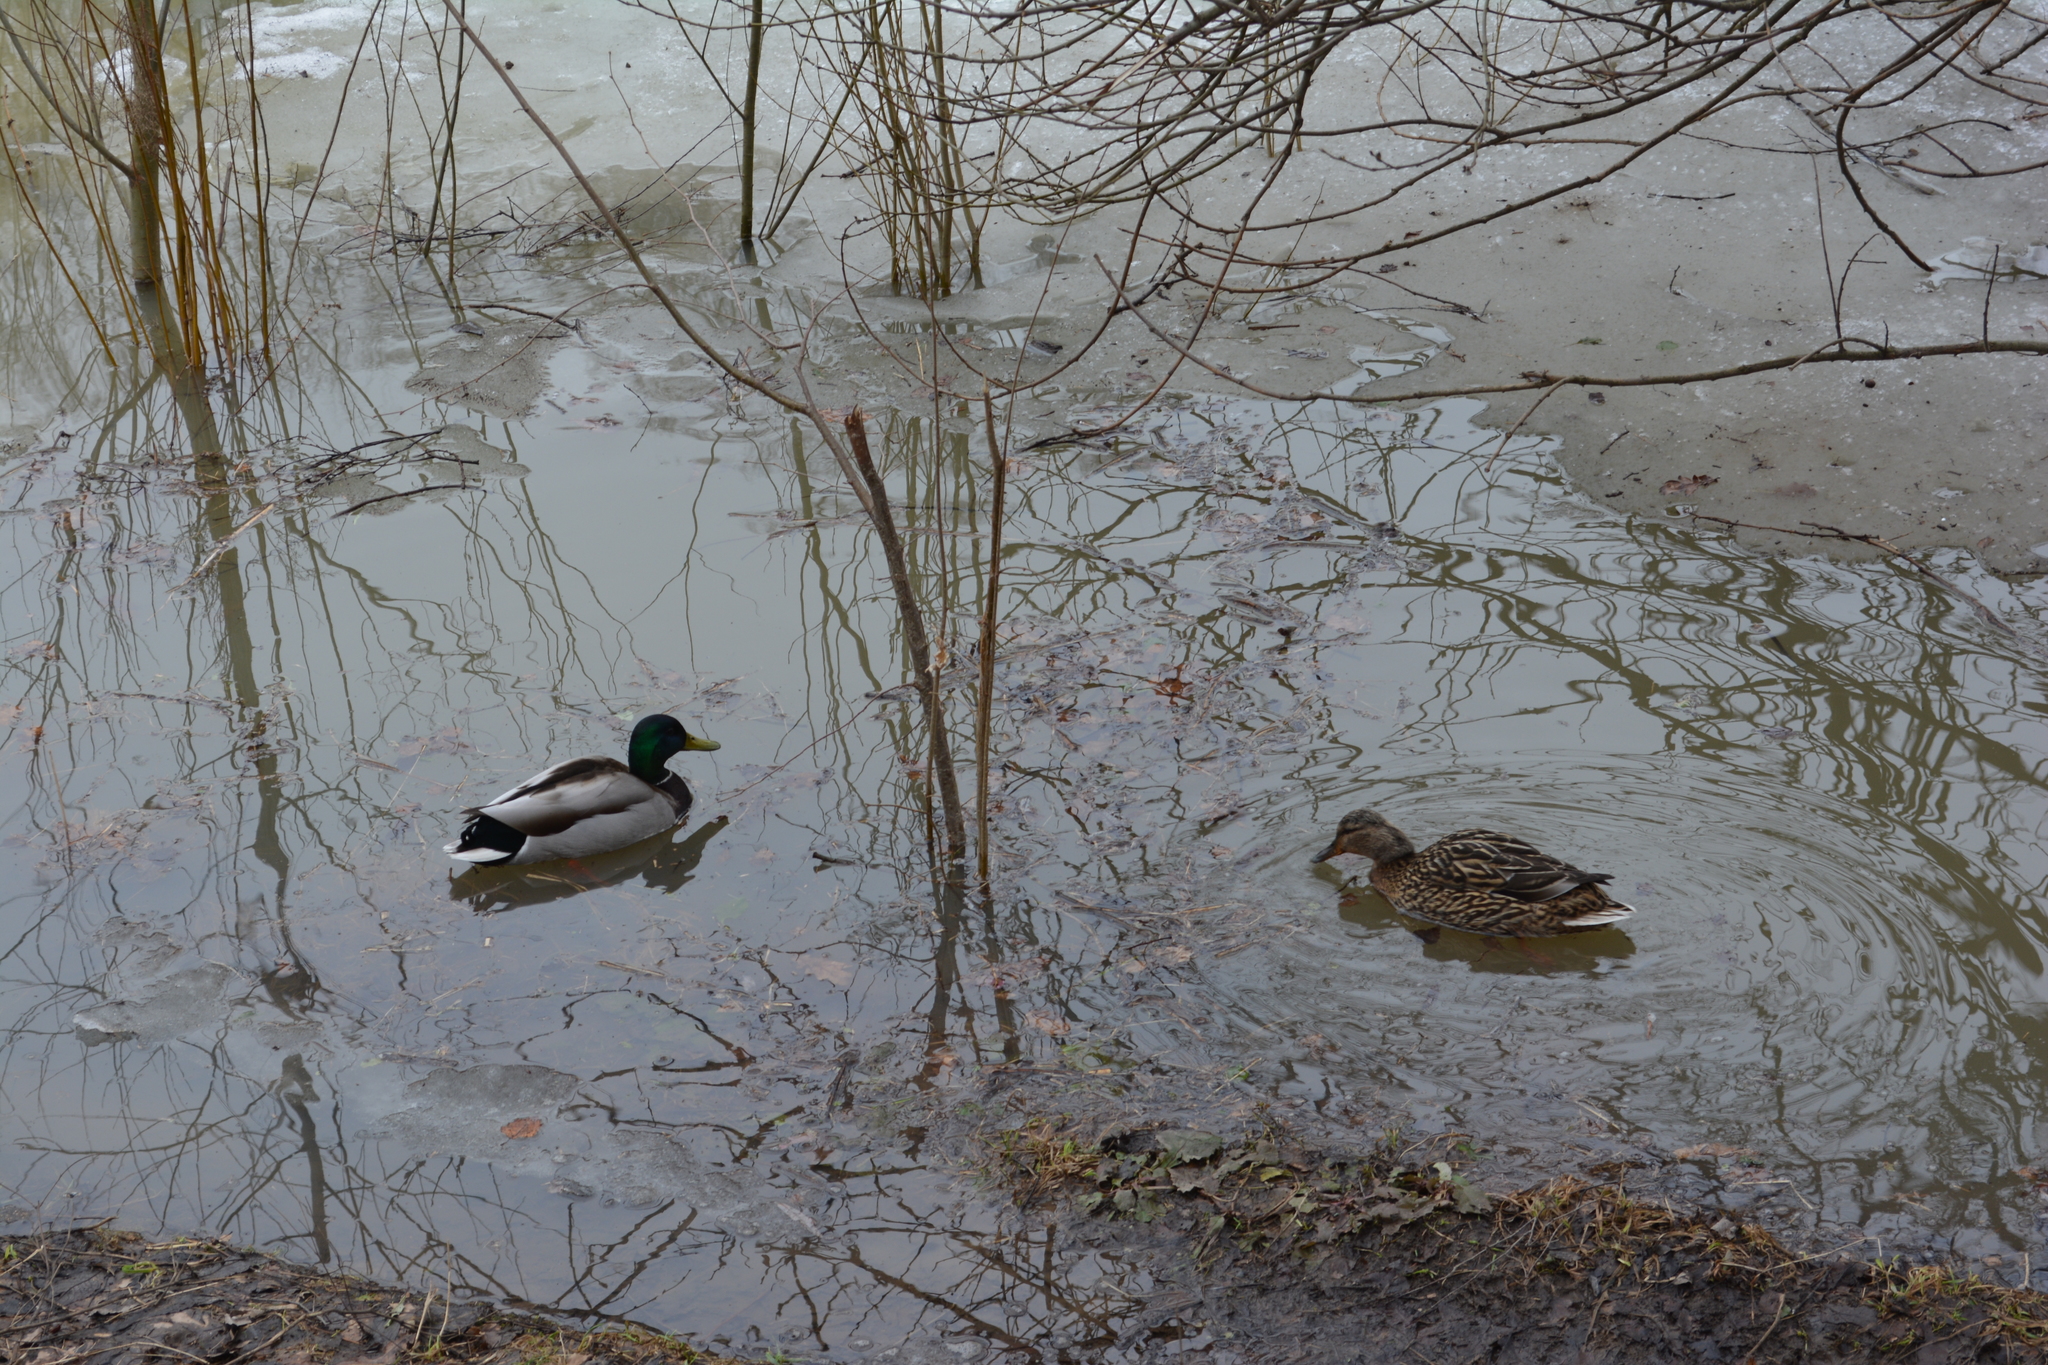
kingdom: Animalia
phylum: Chordata
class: Aves
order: Anseriformes
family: Anatidae
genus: Anas
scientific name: Anas platyrhynchos
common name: Mallard
